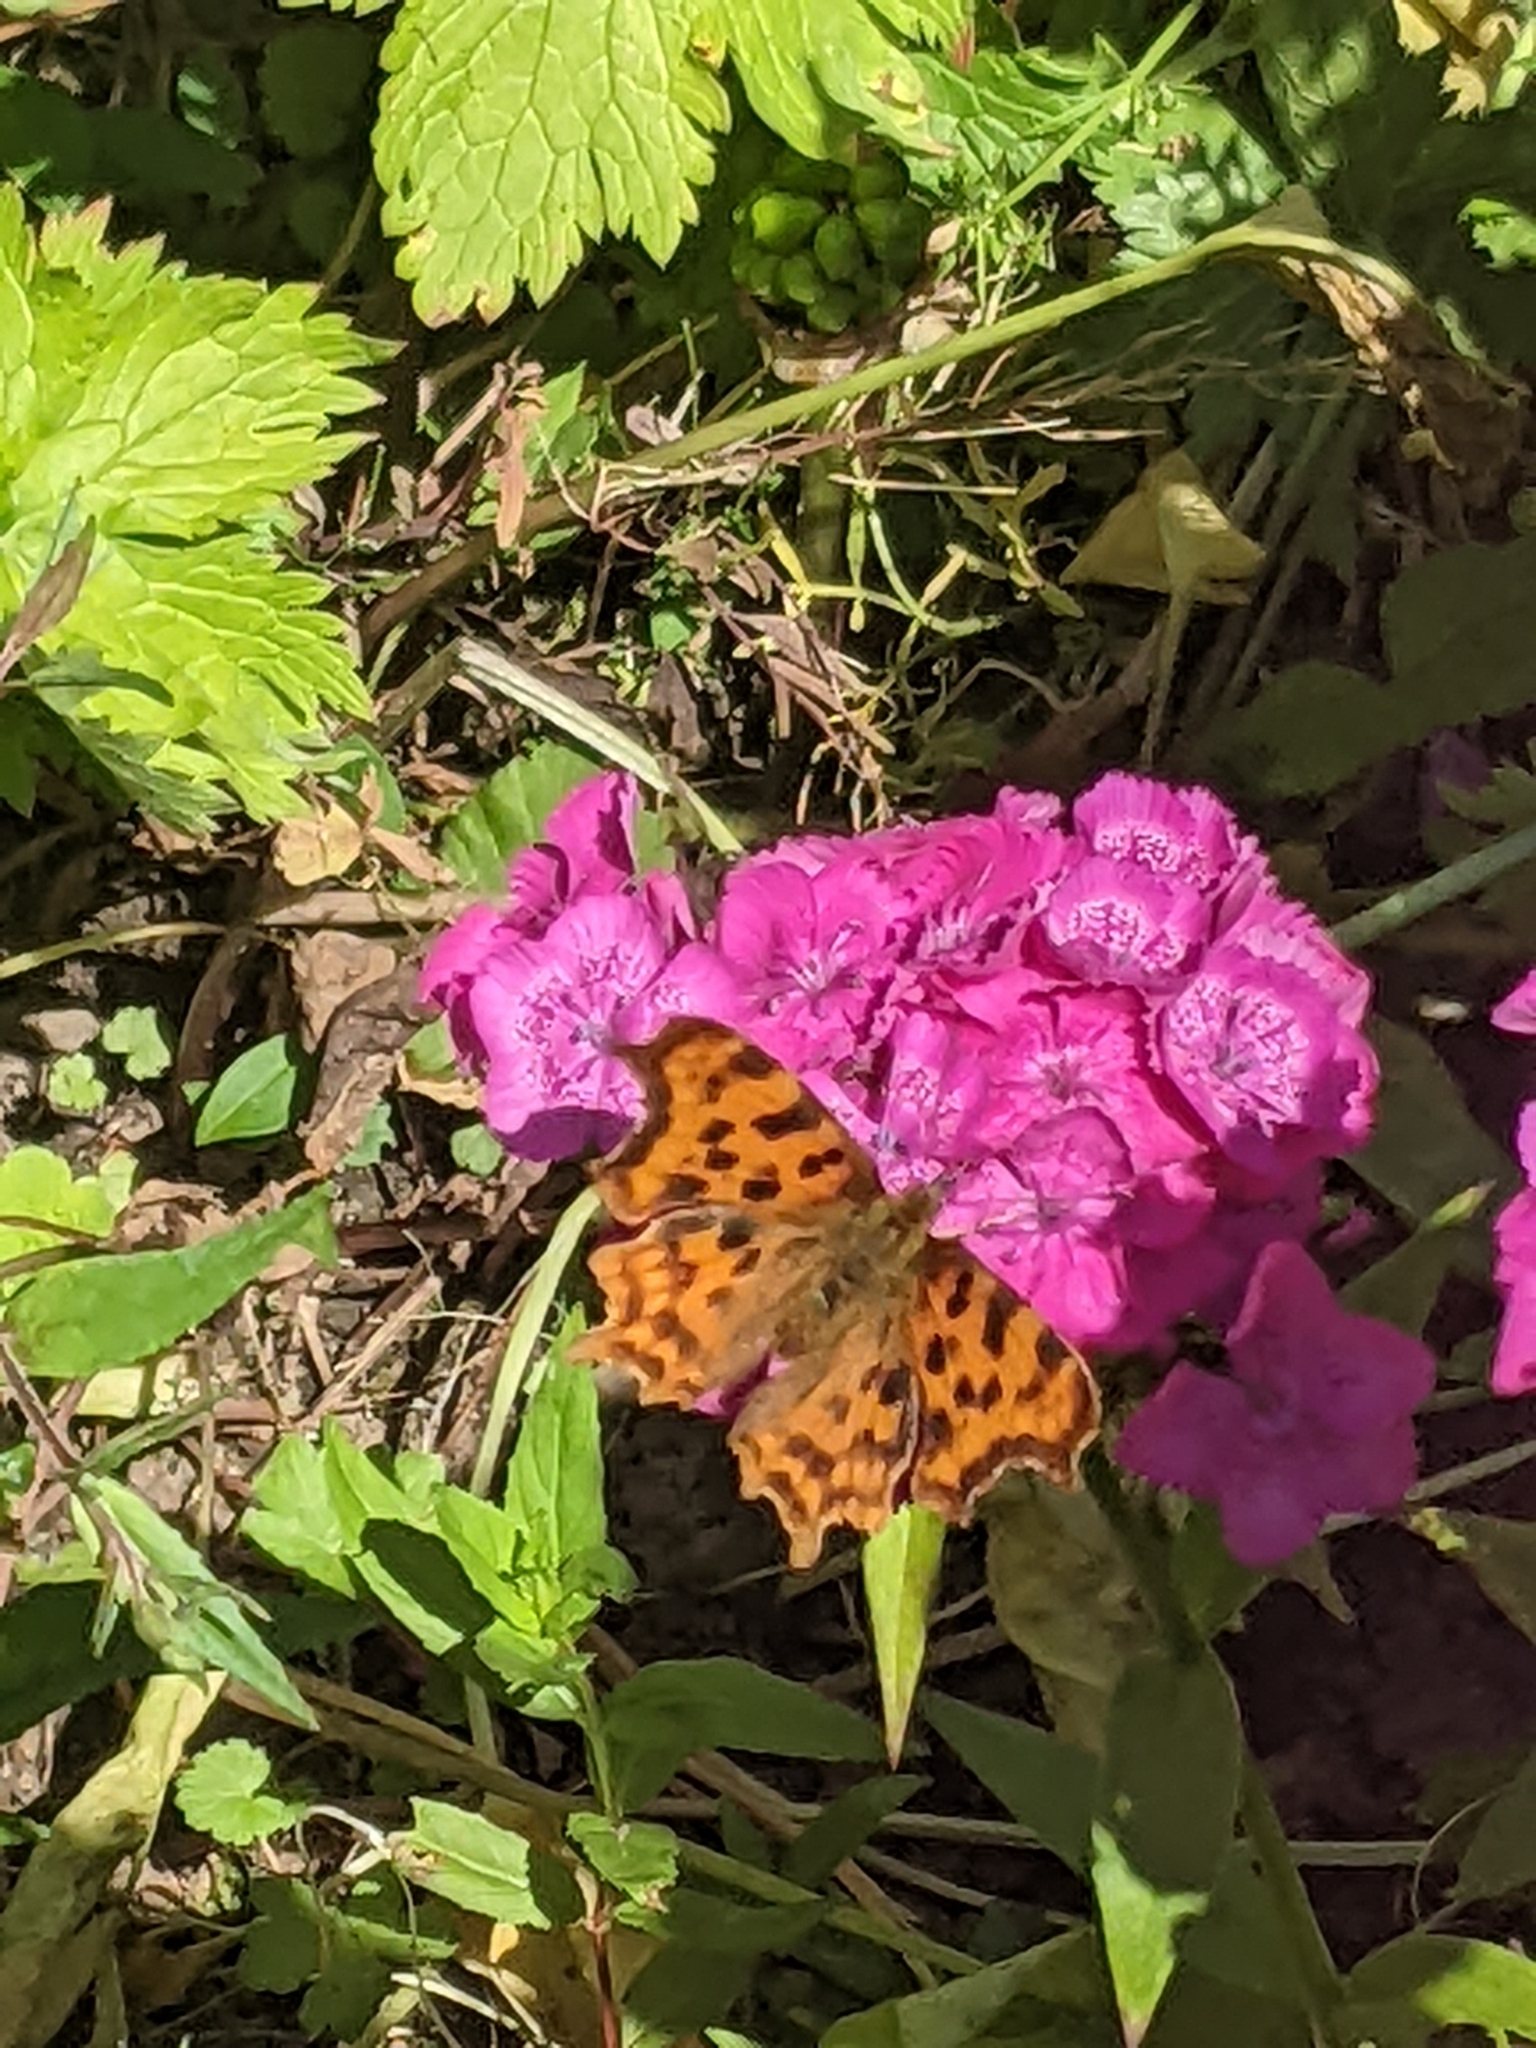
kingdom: Animalia
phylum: Arthropoda
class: Insecta
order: Lepidoptera
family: Nymphalidae
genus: Polygonia
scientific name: Polygonia c-album
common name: Comma
